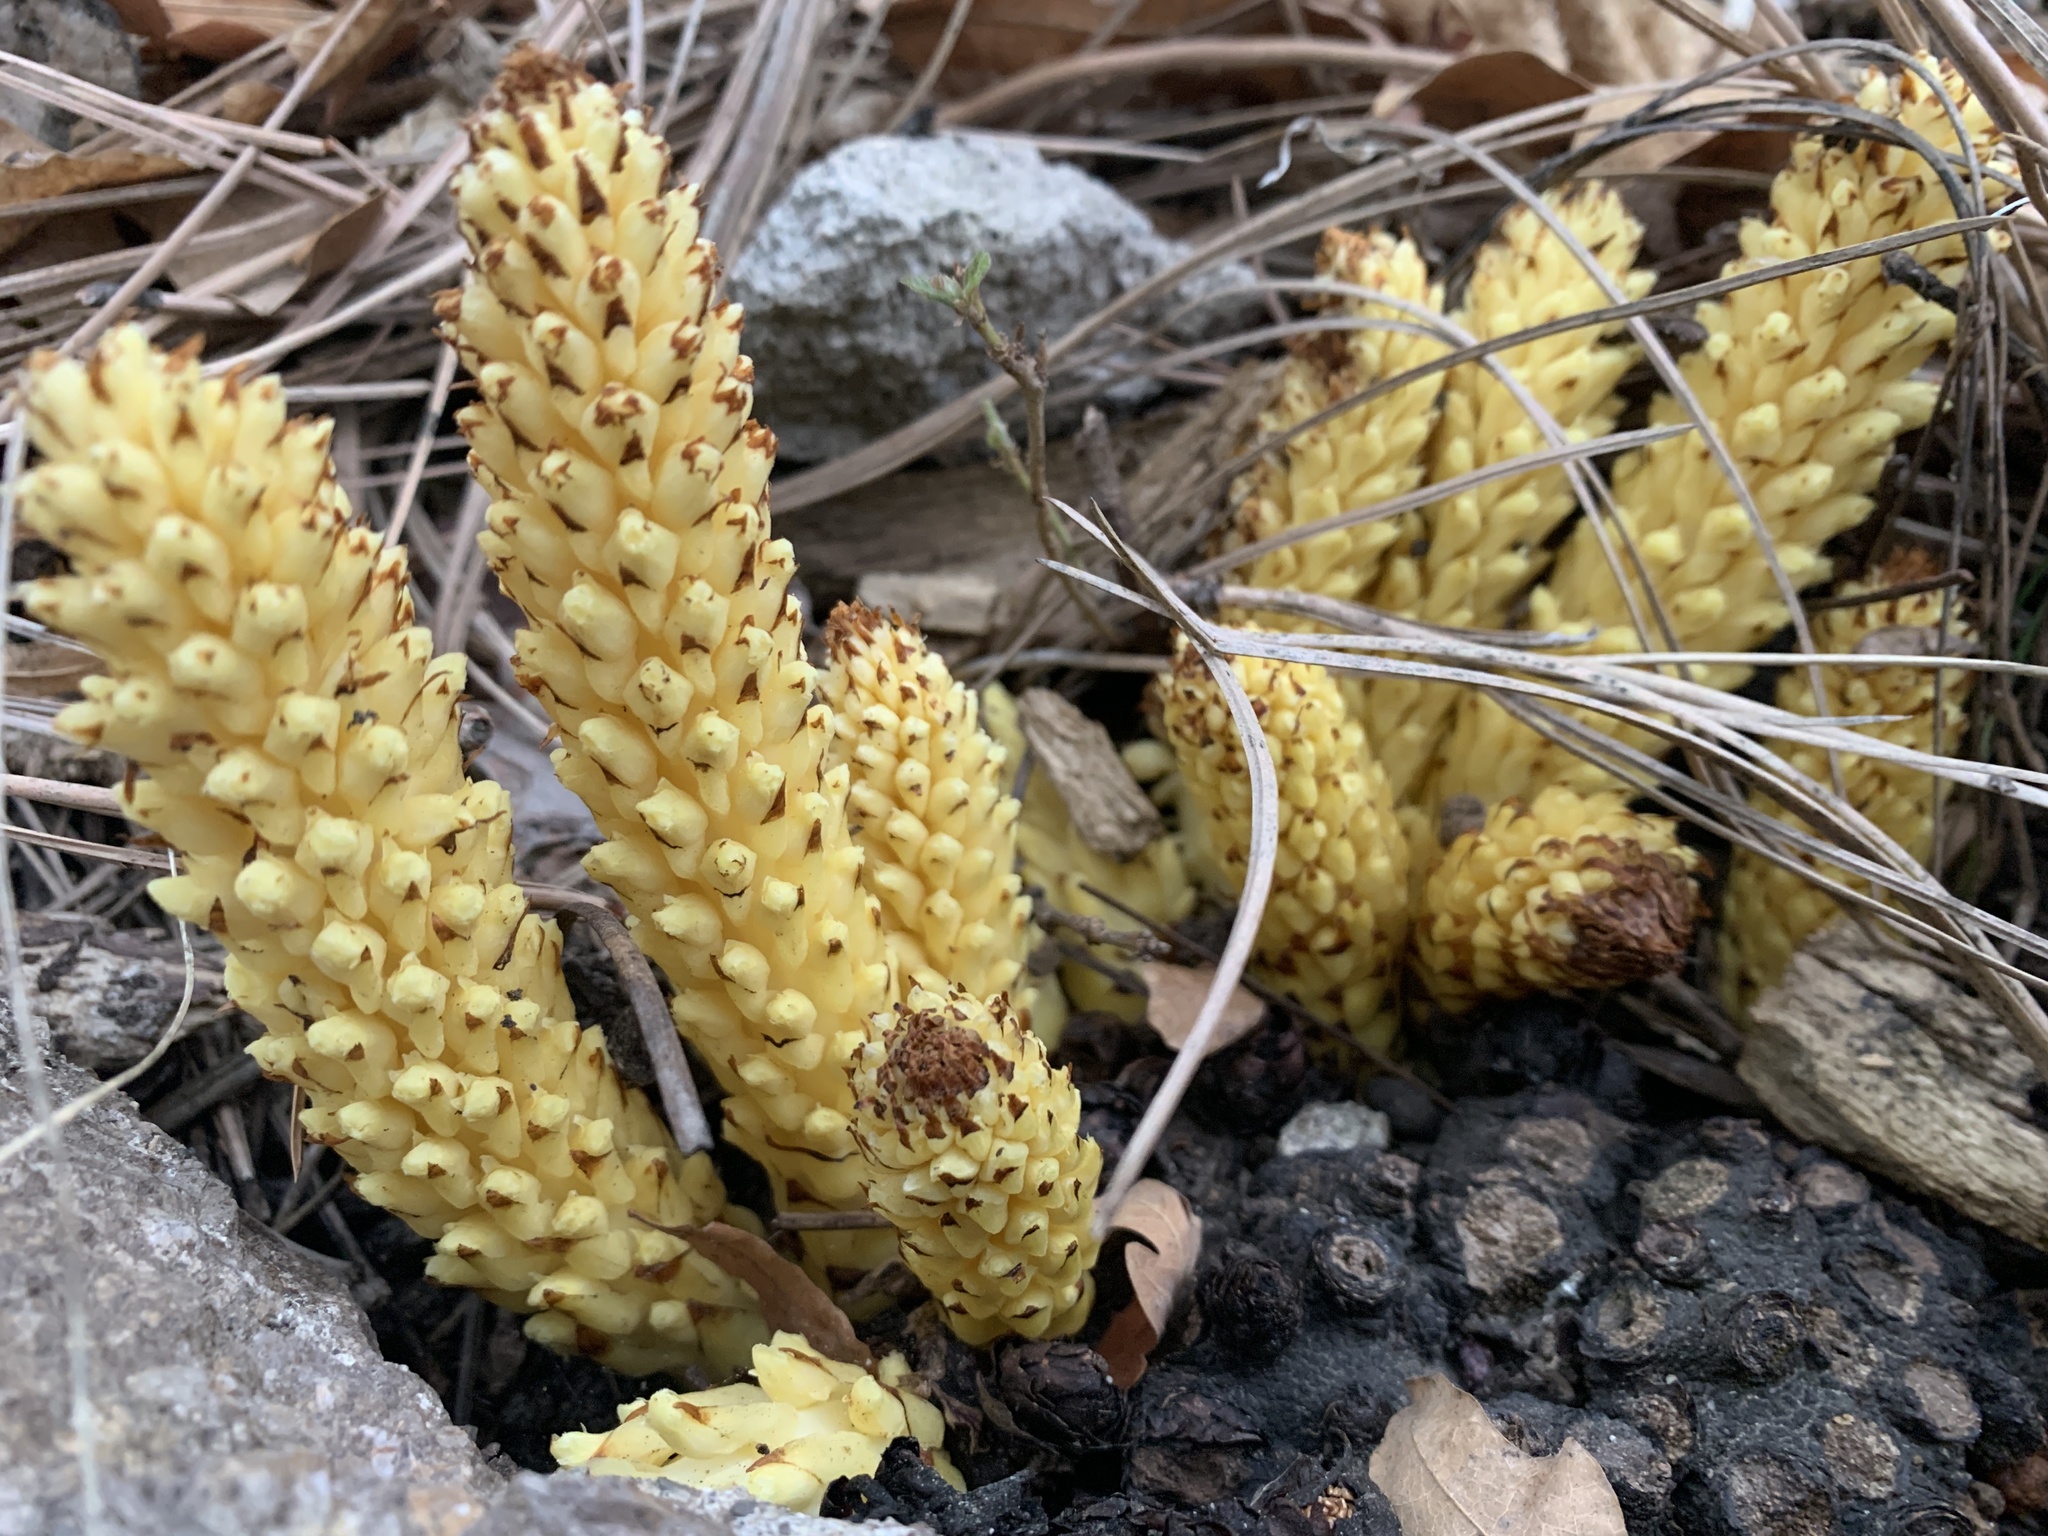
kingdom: Plantae
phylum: Tracheophyta
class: Magnoliopsida
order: Lamiales
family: Orobanchaceae
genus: Conopholis
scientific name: Conopholis alpina
